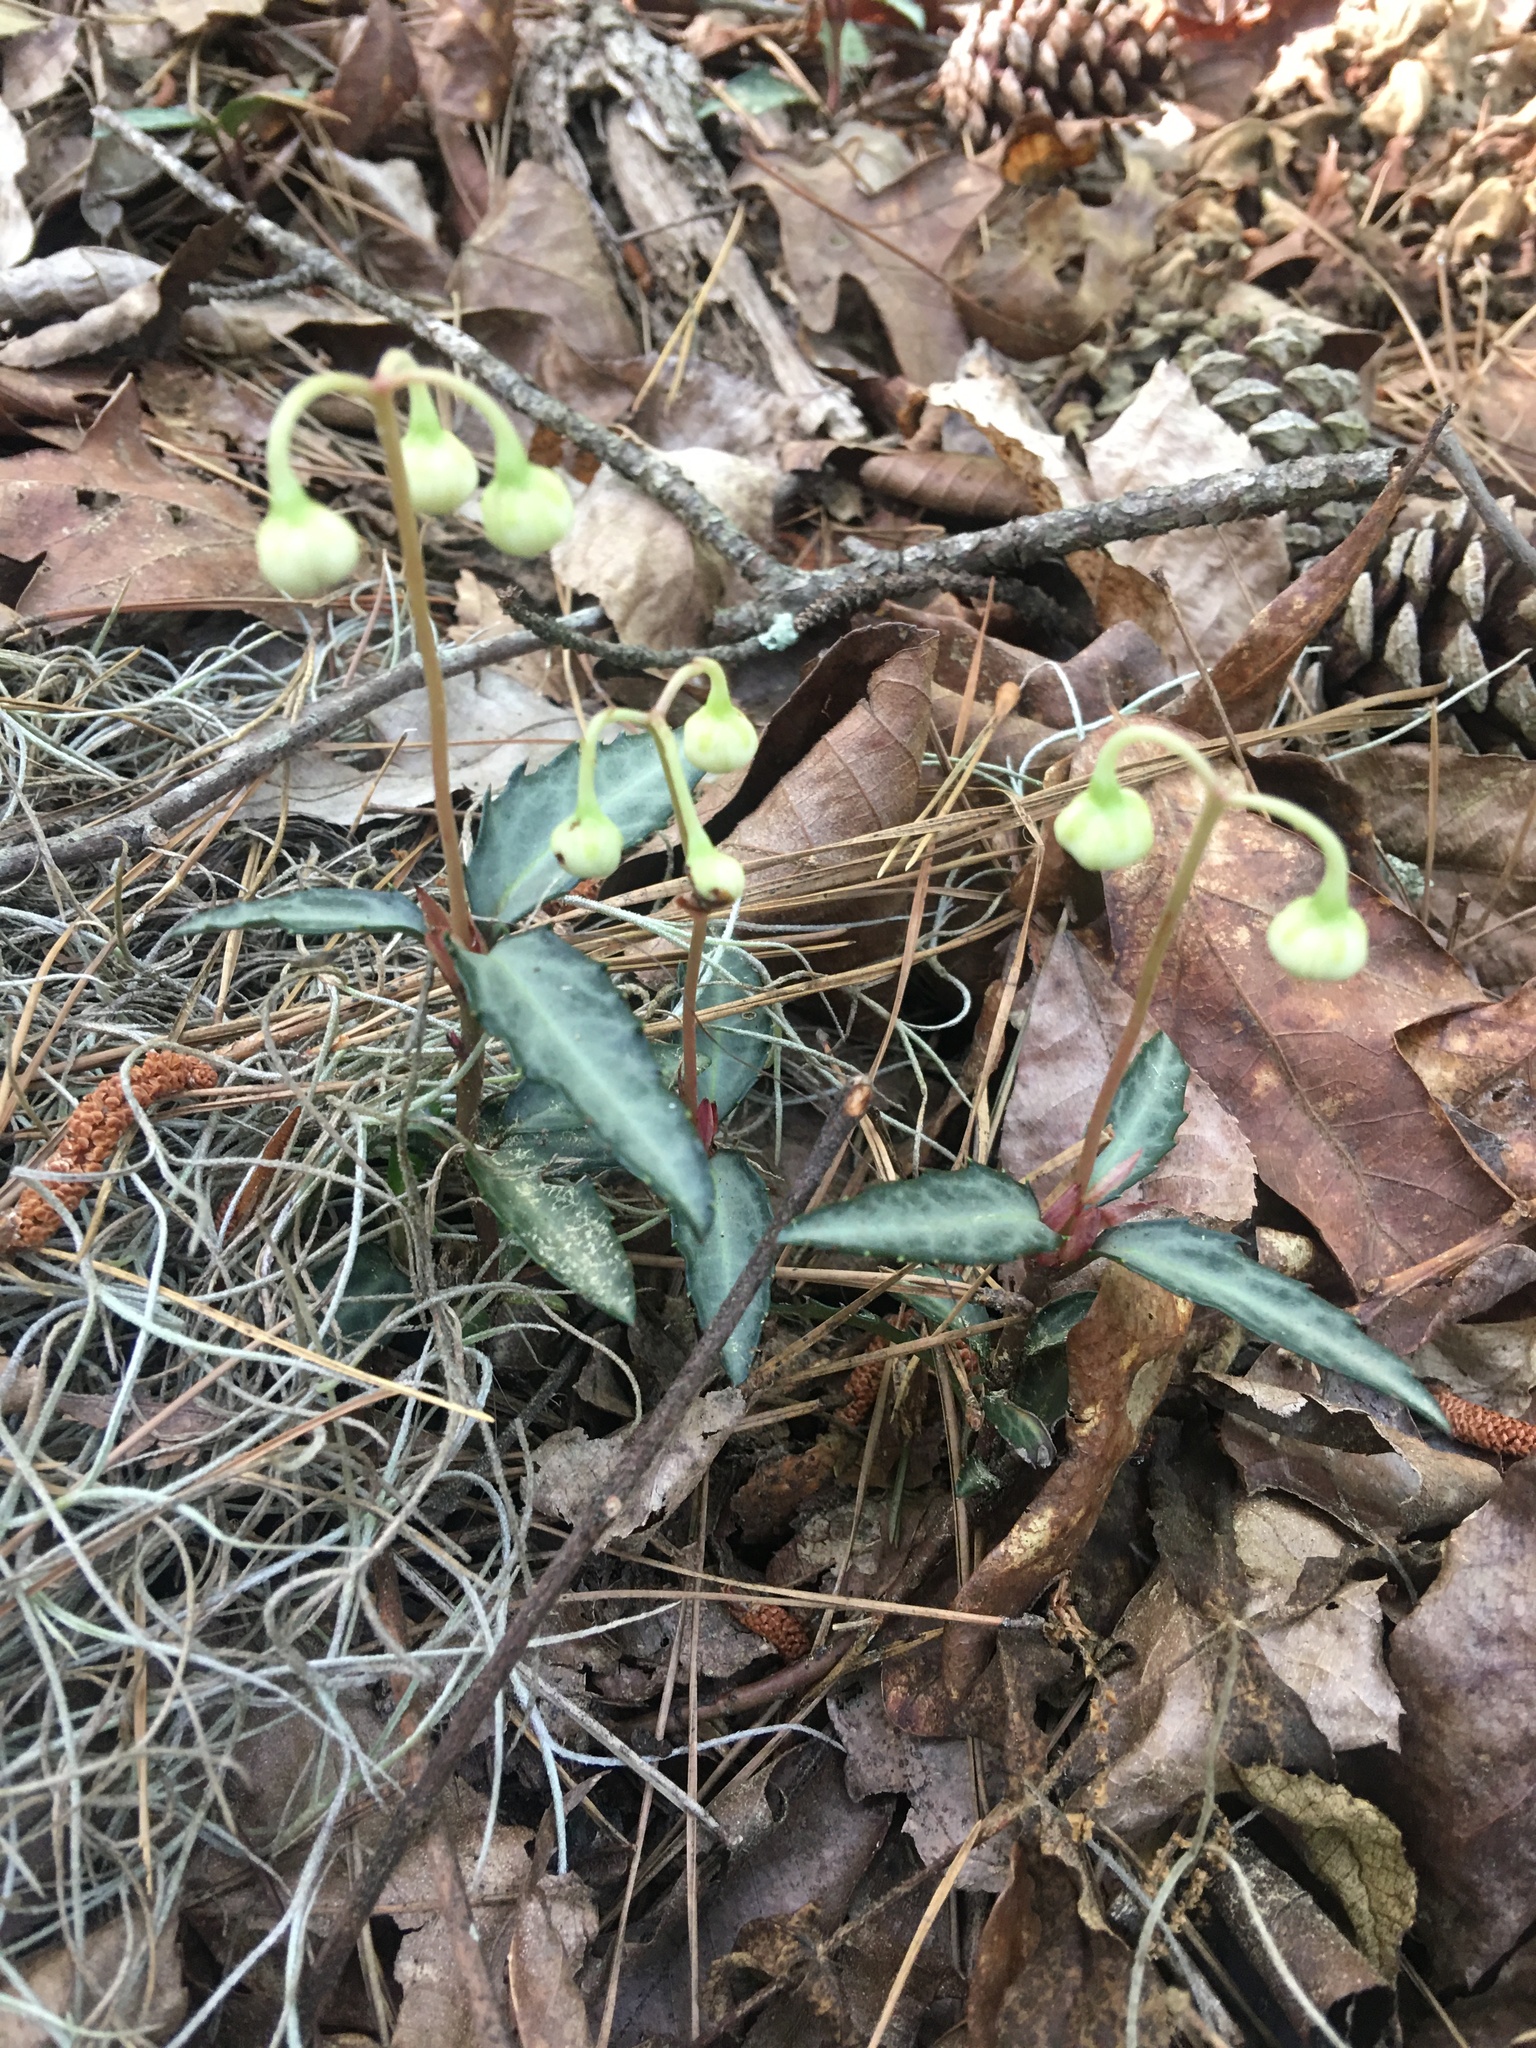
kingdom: Plantae
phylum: Tracheophyta
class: Magnoliopsida
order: Ericales
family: Ericaceae
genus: Chimaphila
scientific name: Chimaphila maculata
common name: Spotted pipsissewa
